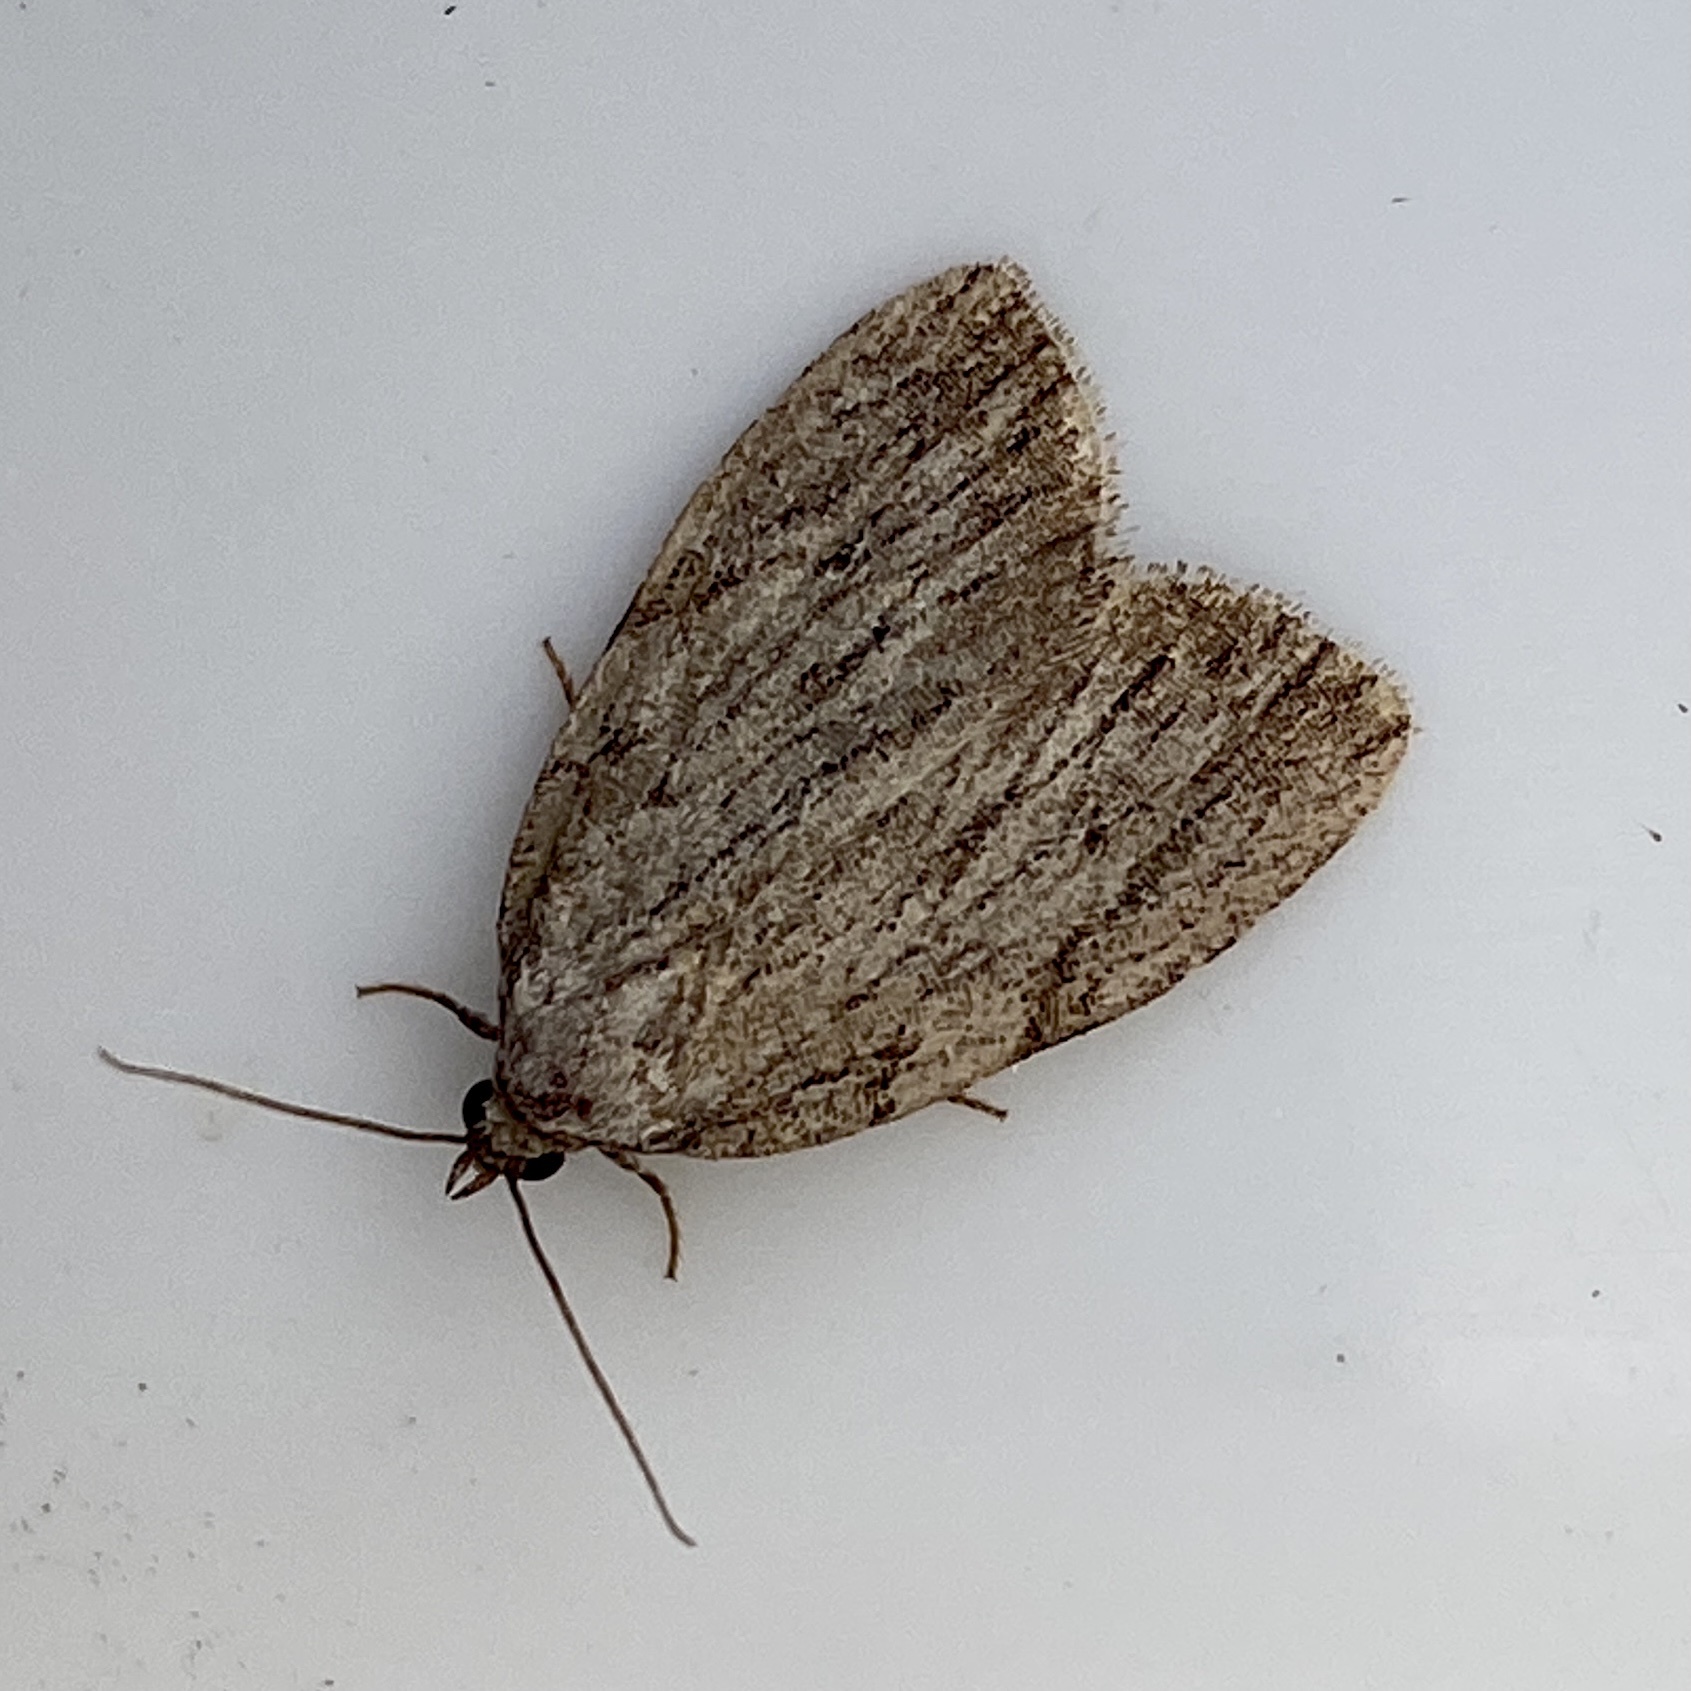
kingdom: Animalia
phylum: Arthropoda
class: Insecta
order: Lepidoptera
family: Noctuidae
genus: Balsa
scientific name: Balsa tristrigella
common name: Three-lined balsa moth
